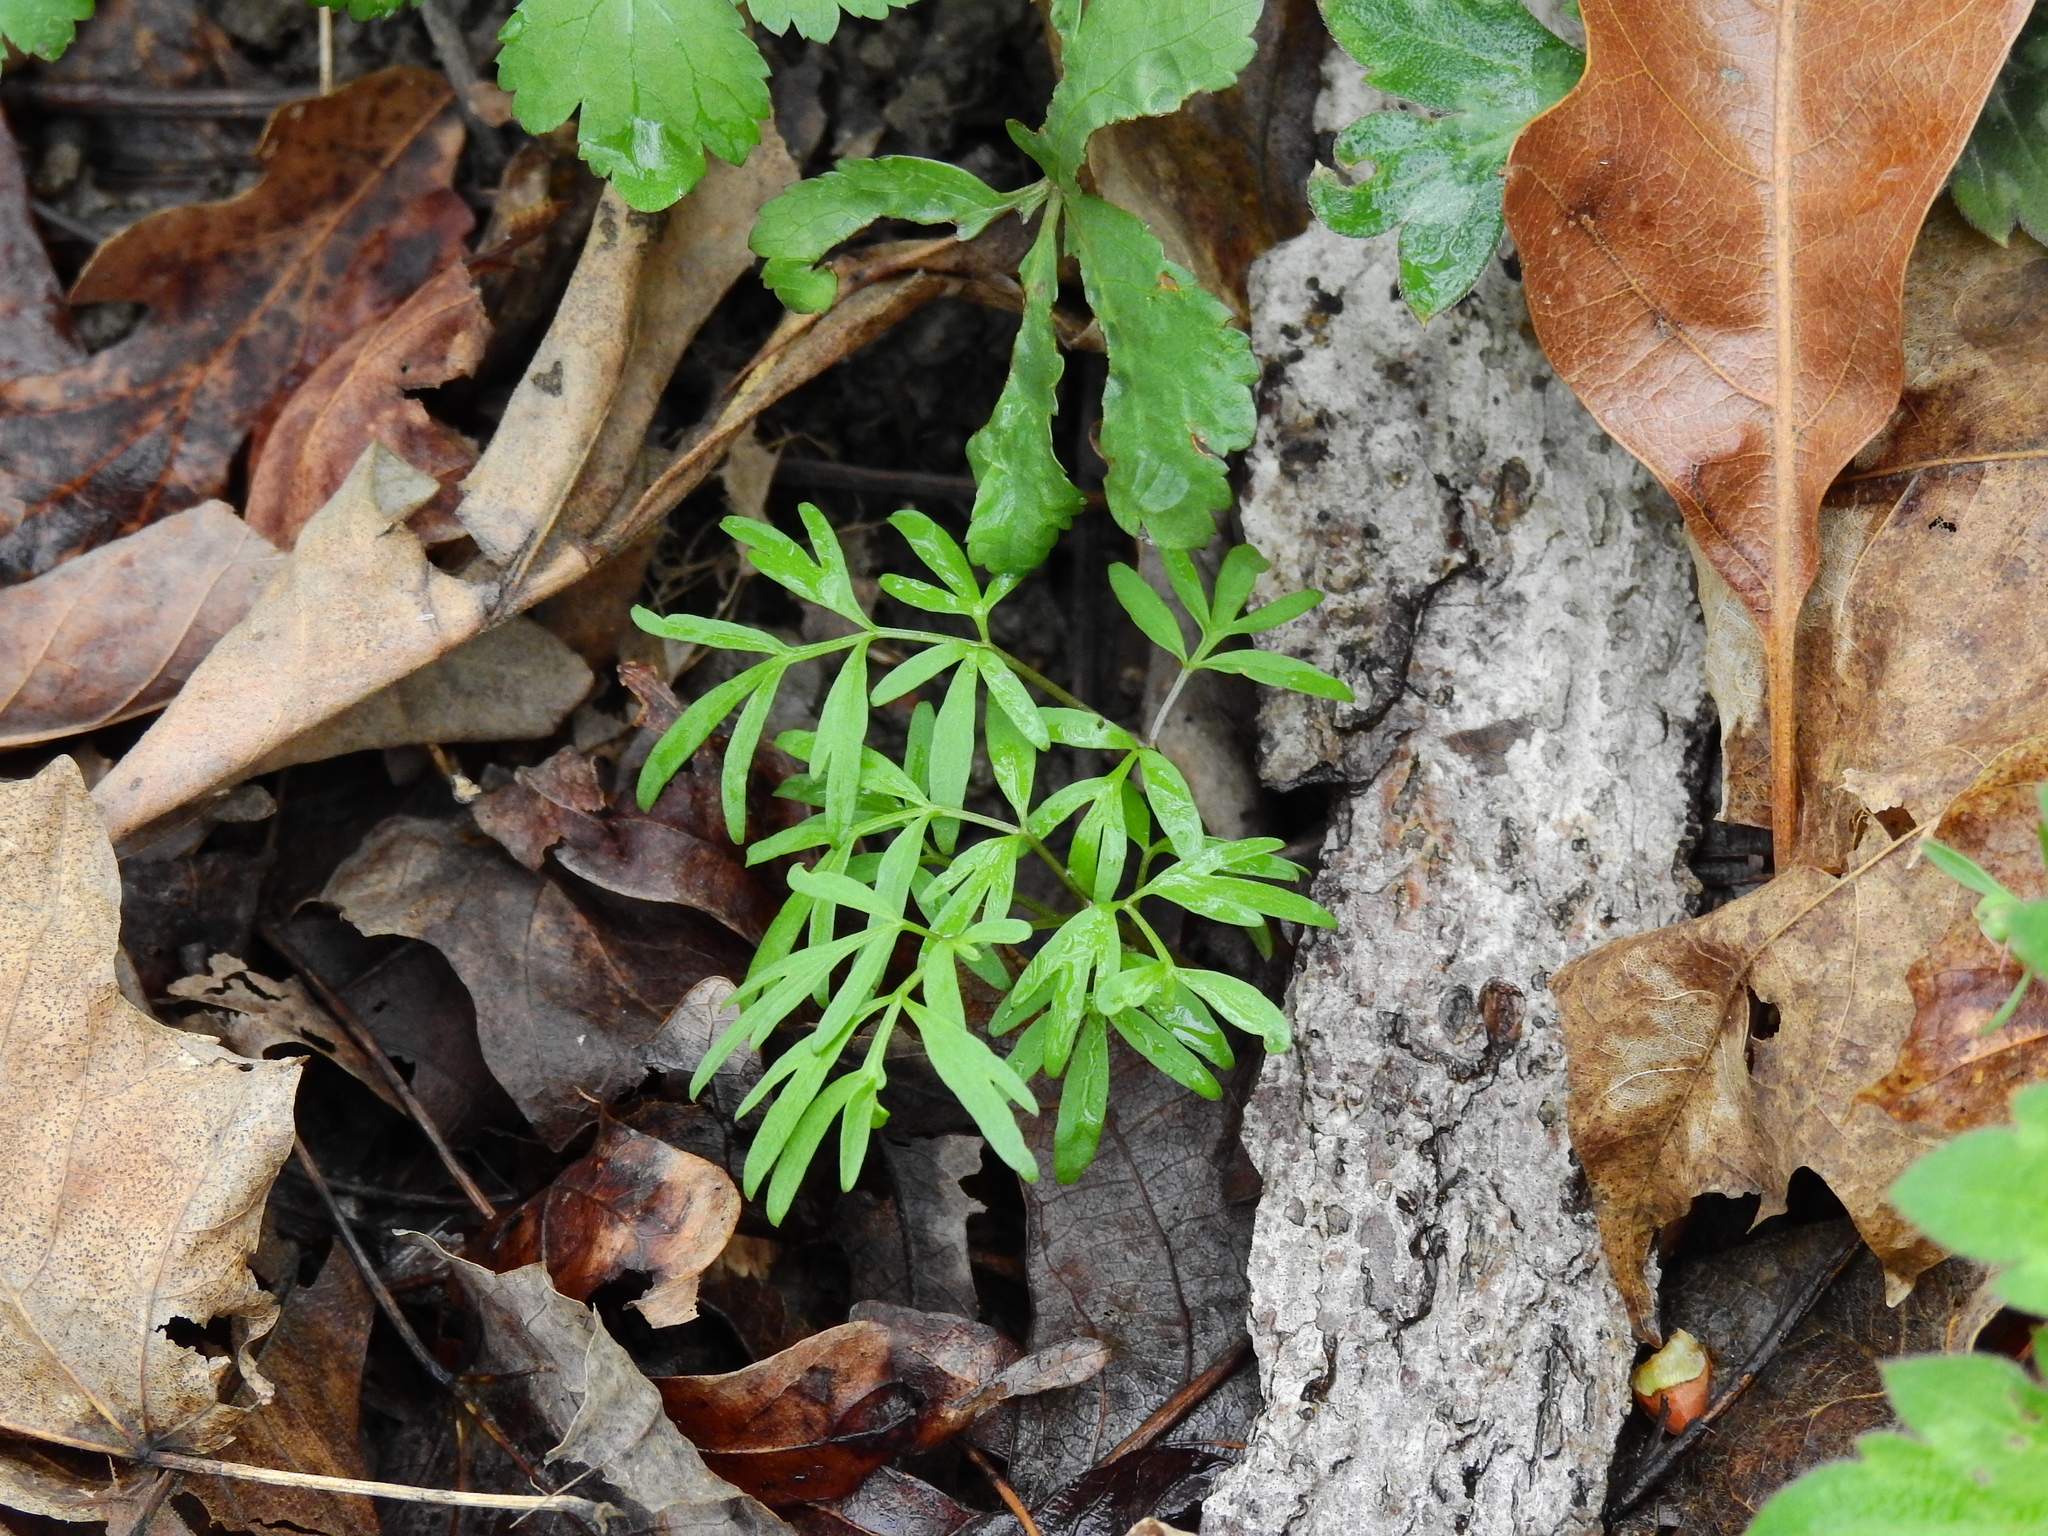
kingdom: Plantae
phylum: Tracheophyta
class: Magnoliopsida
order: Apiales
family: Apiaceae
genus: Erigenia
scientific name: Erigenia bulbosa
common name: Pepper-and-salt
